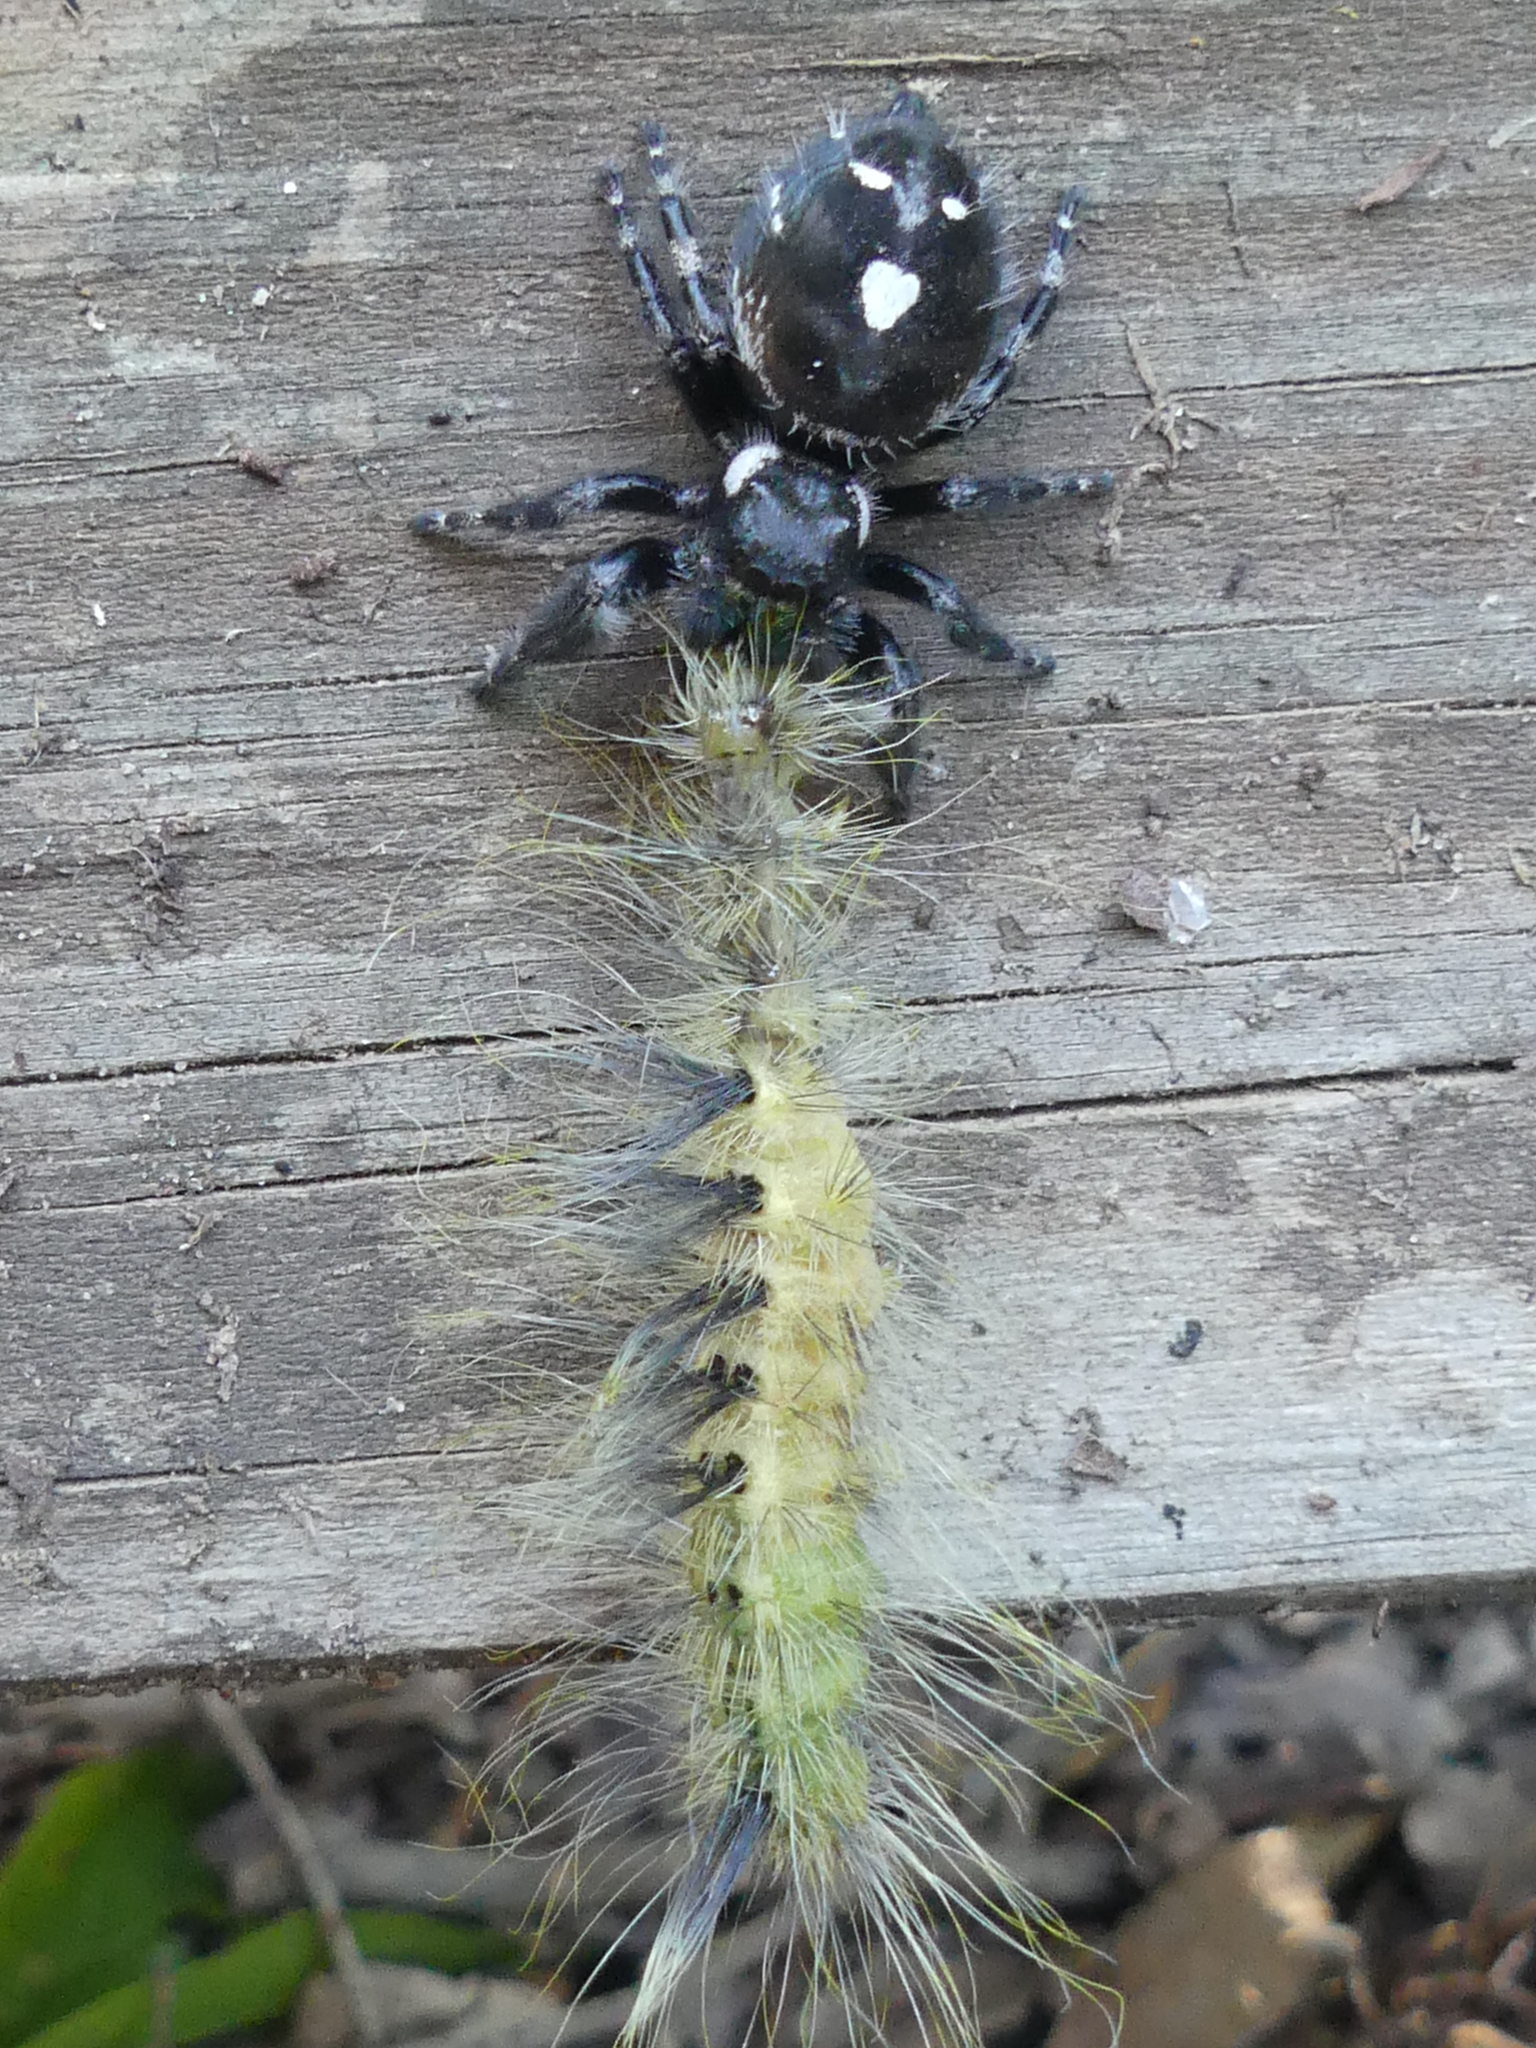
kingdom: Animalia
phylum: Arthropoda
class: Arachnida
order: Araneae
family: Salticidae
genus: Phidippus
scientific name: Phidippus audax
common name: Bold jumper
